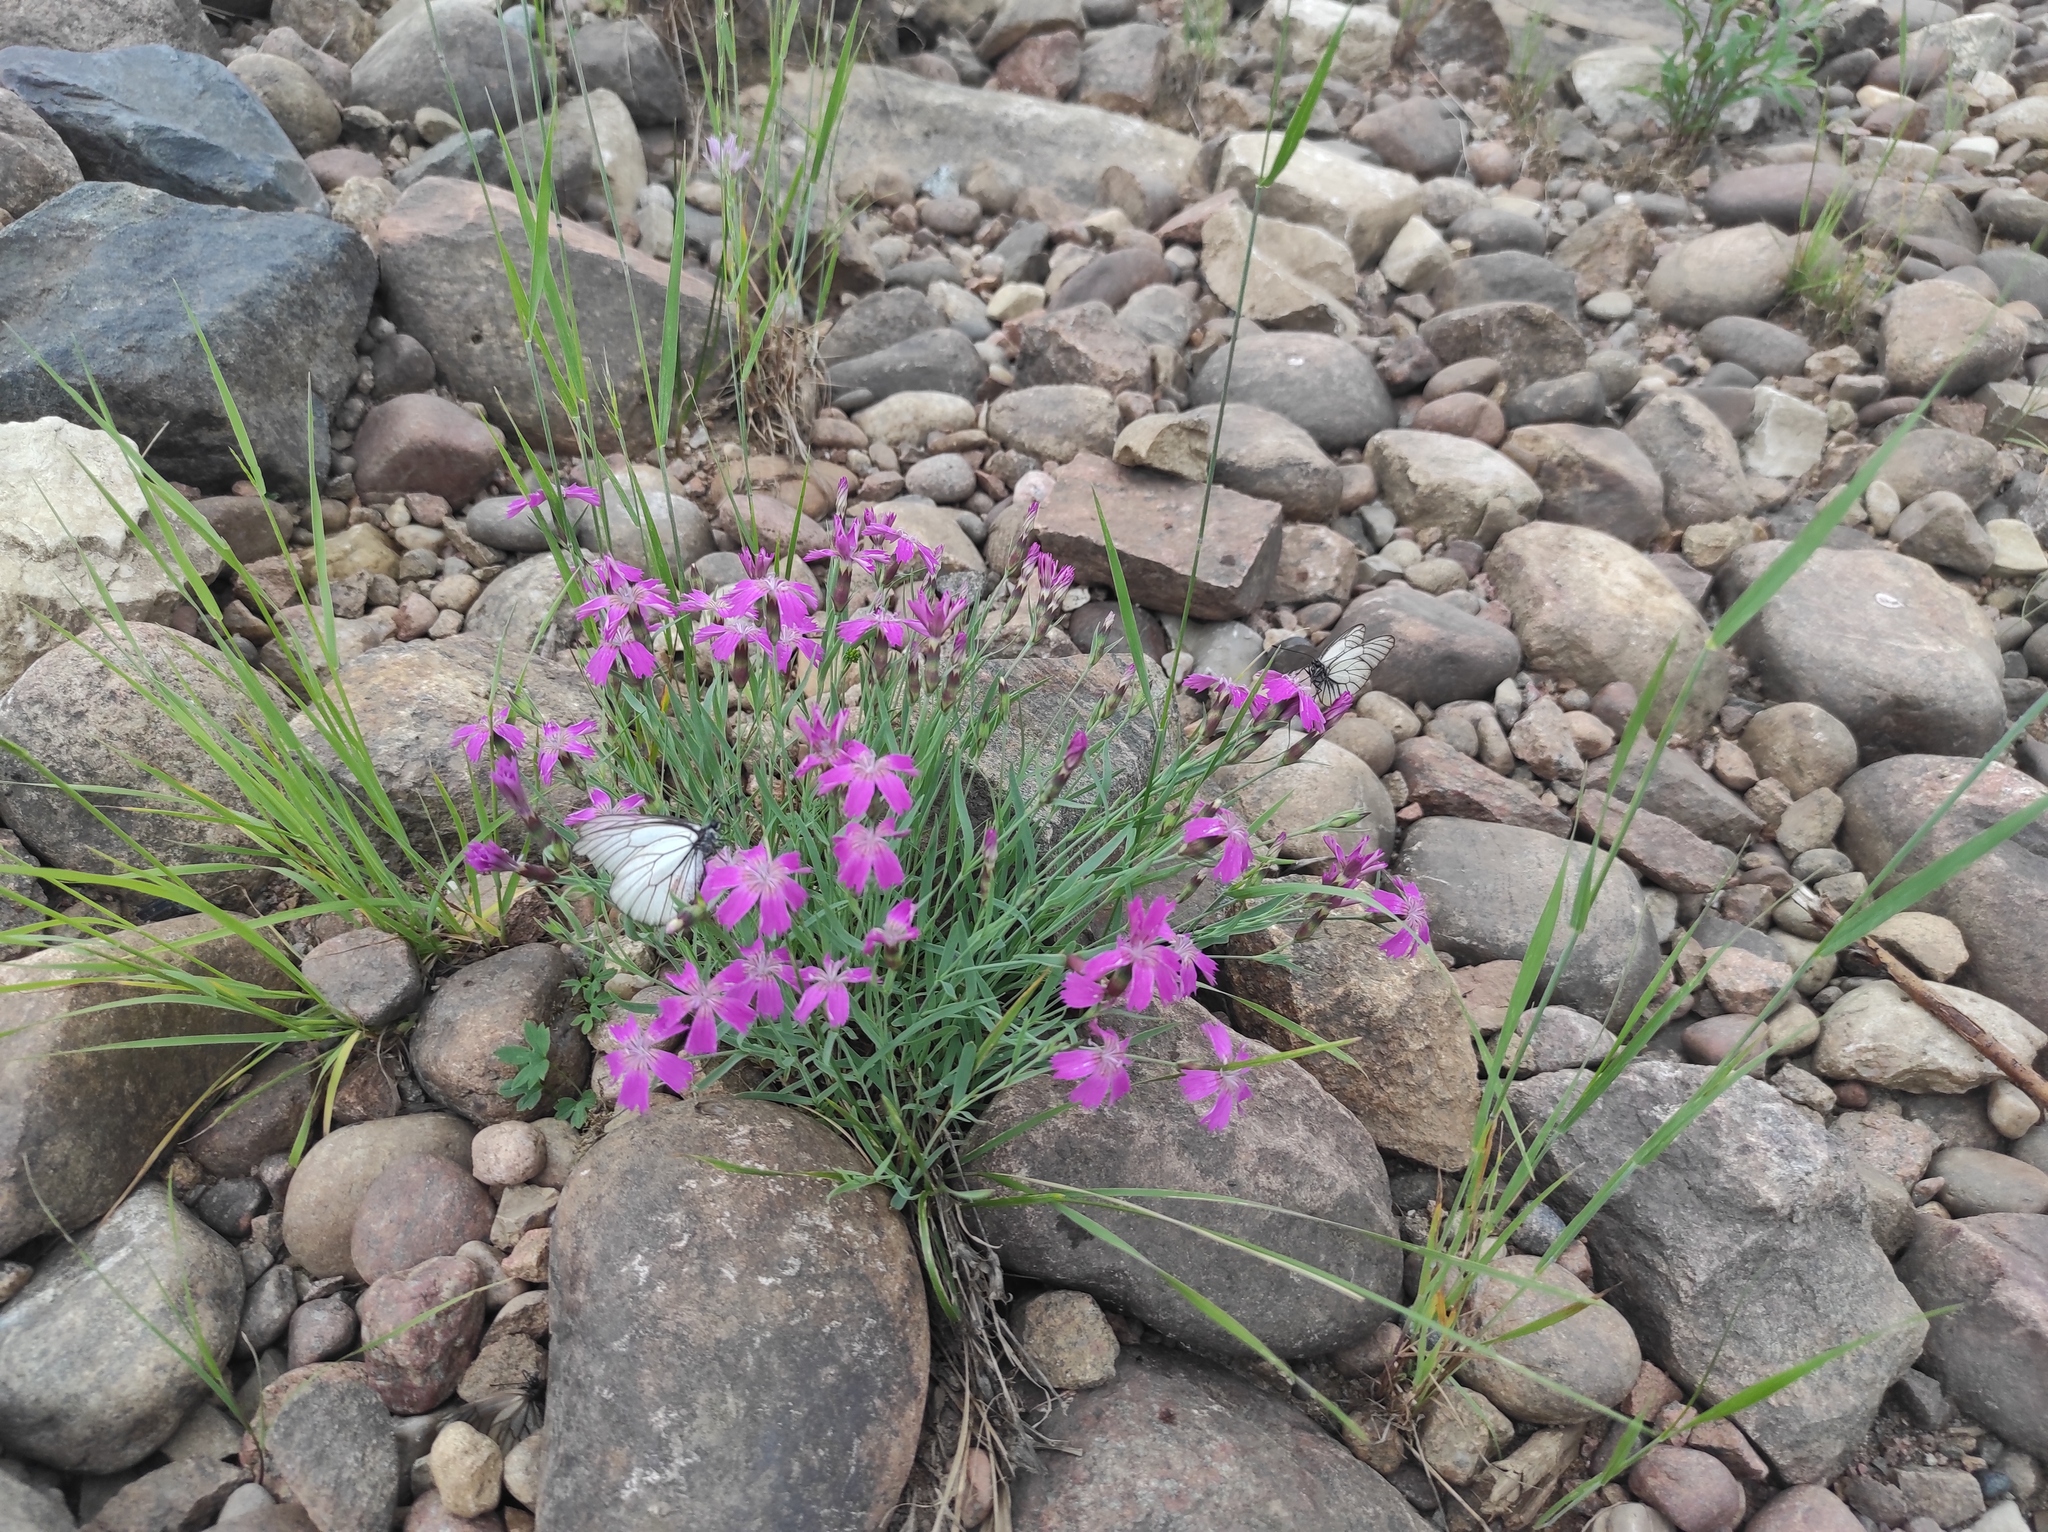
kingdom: Plantae
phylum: Tracheophyta
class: Magnoliopsida
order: Caryophyllales
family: Caryophyllaceae
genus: Dianthus
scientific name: Dianthus repens
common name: Northern pink
